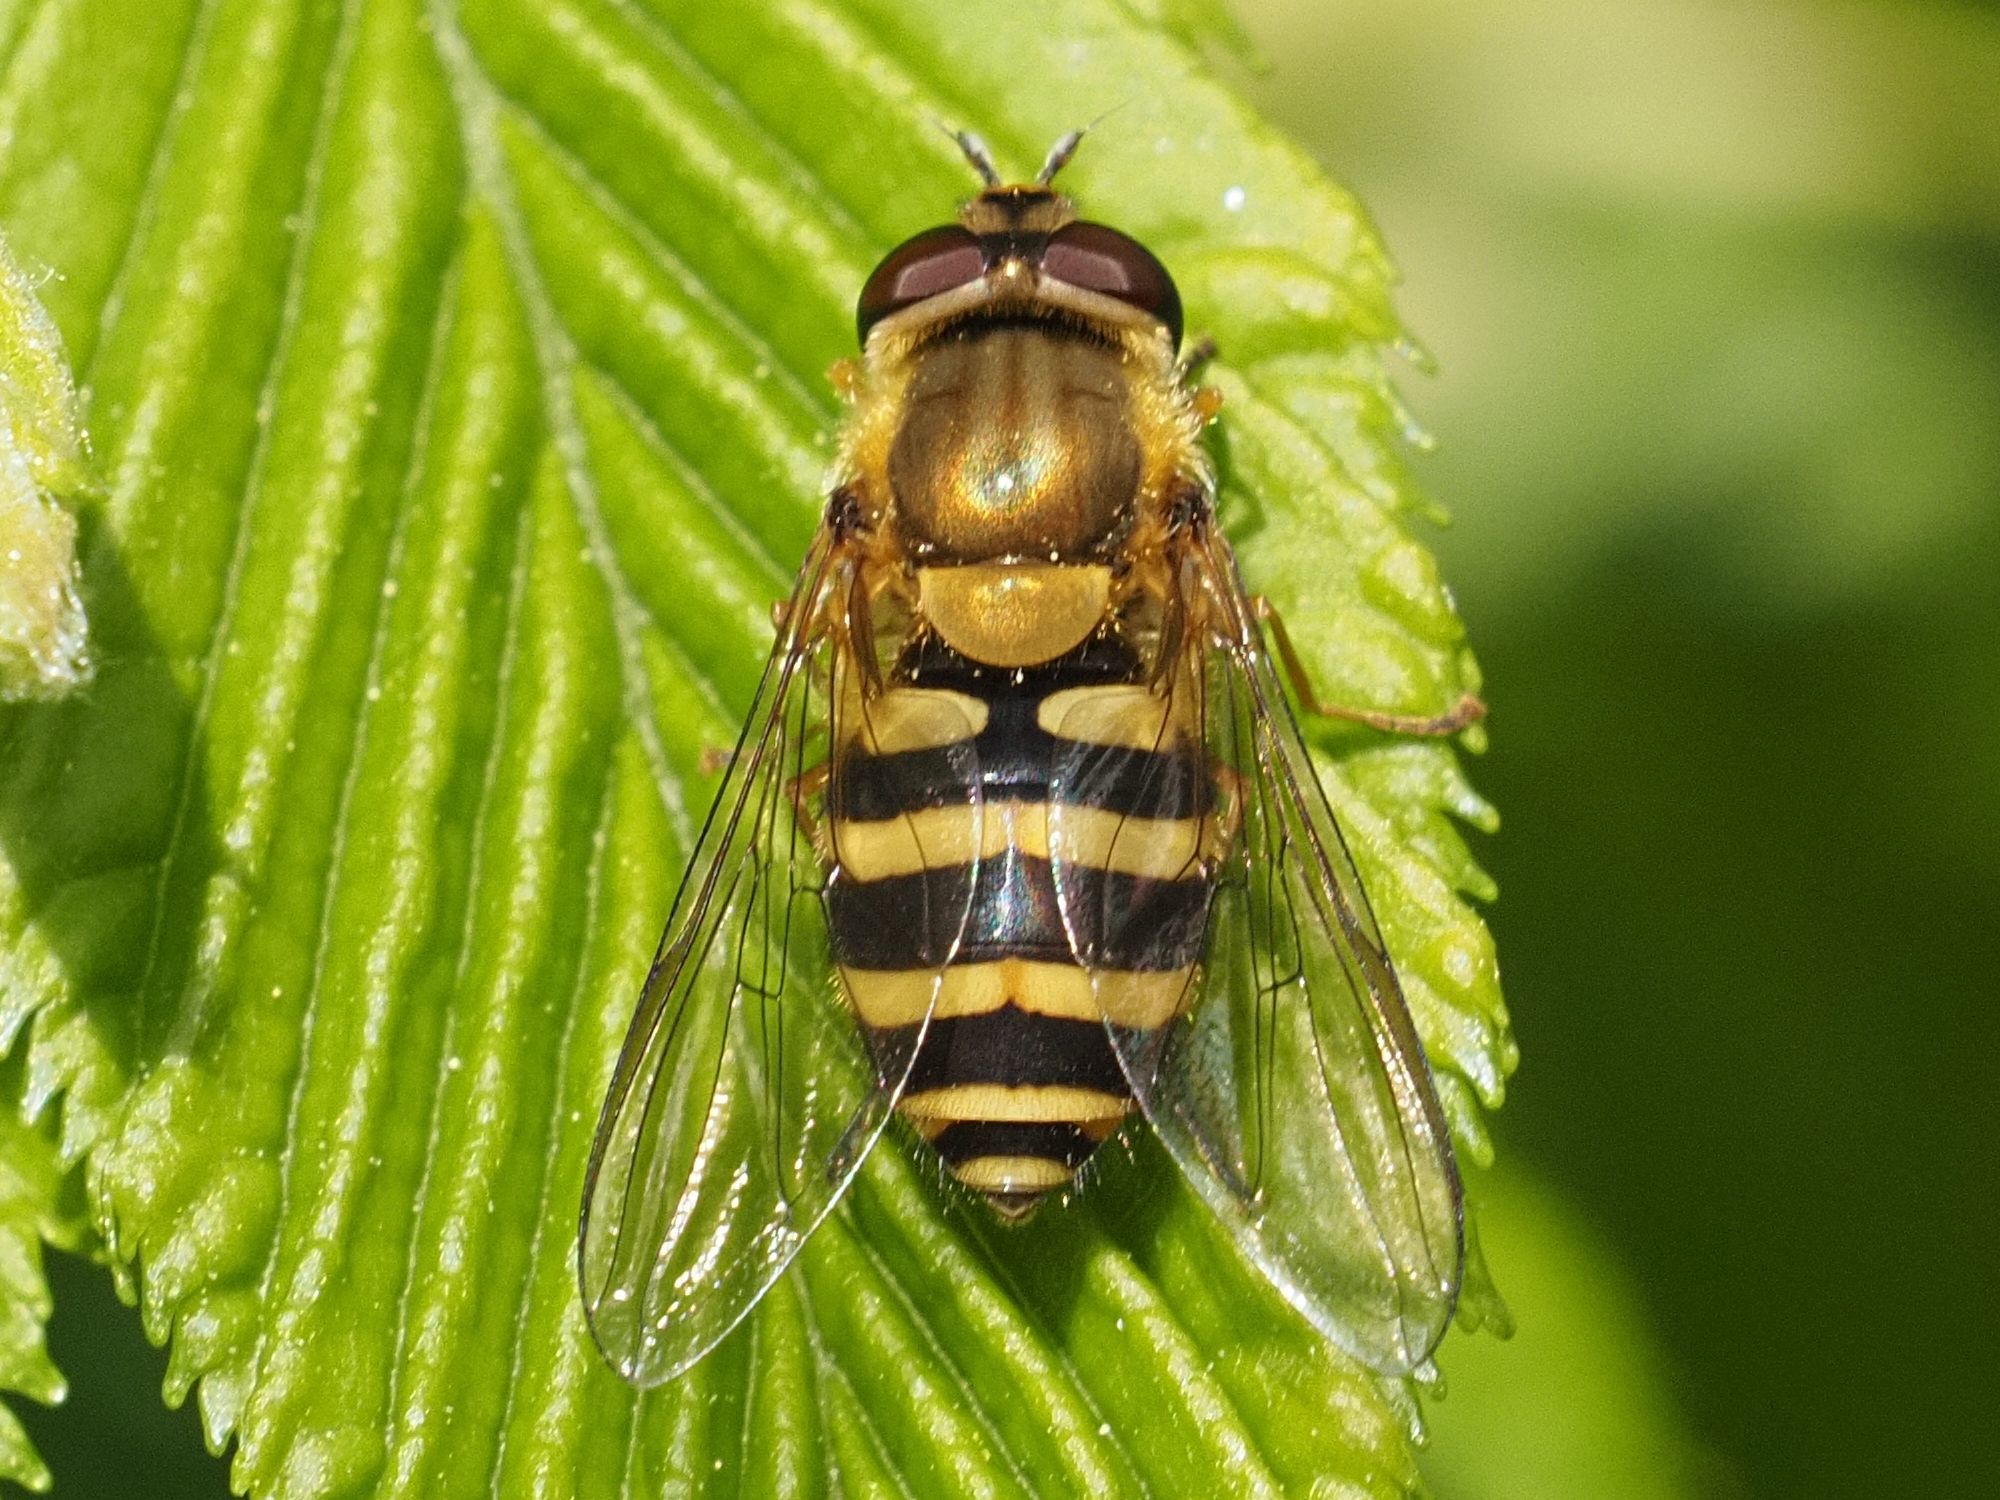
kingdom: Animalia
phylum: Arthropoda
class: Insecta
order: Diptera
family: Syrphidae
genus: Syrphus
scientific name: Syrphus
